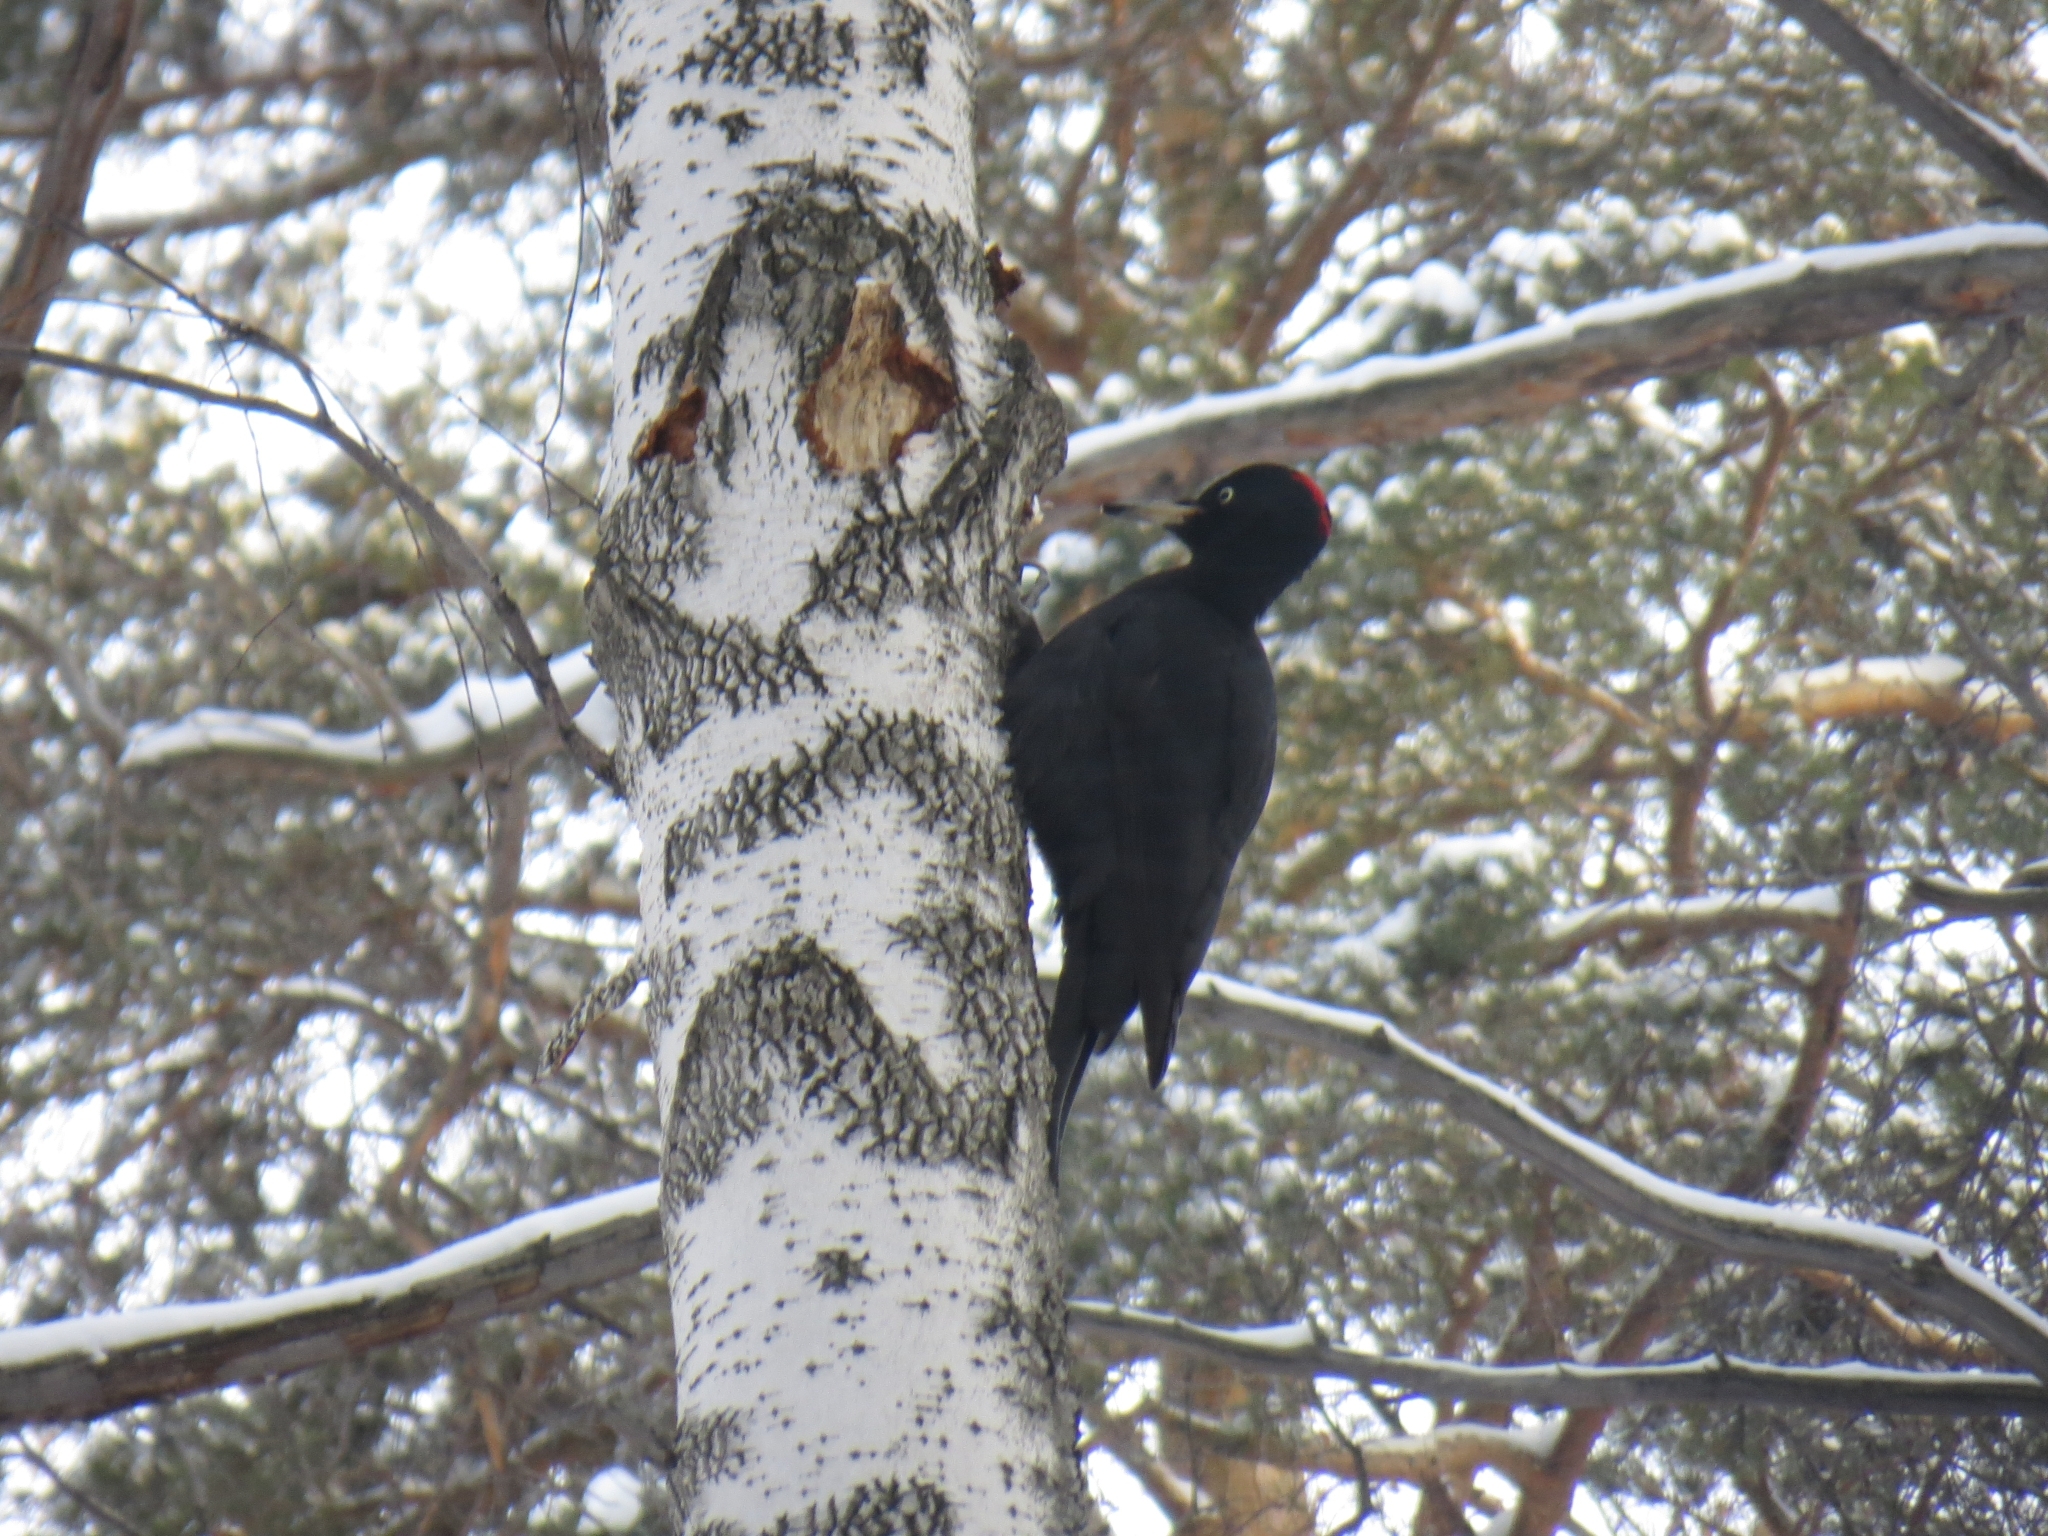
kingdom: Animalia
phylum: Chordata
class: Aves
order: Piciformes
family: Picidae
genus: Dryocopus
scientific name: Dryocopus martius
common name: Black woodpecker
